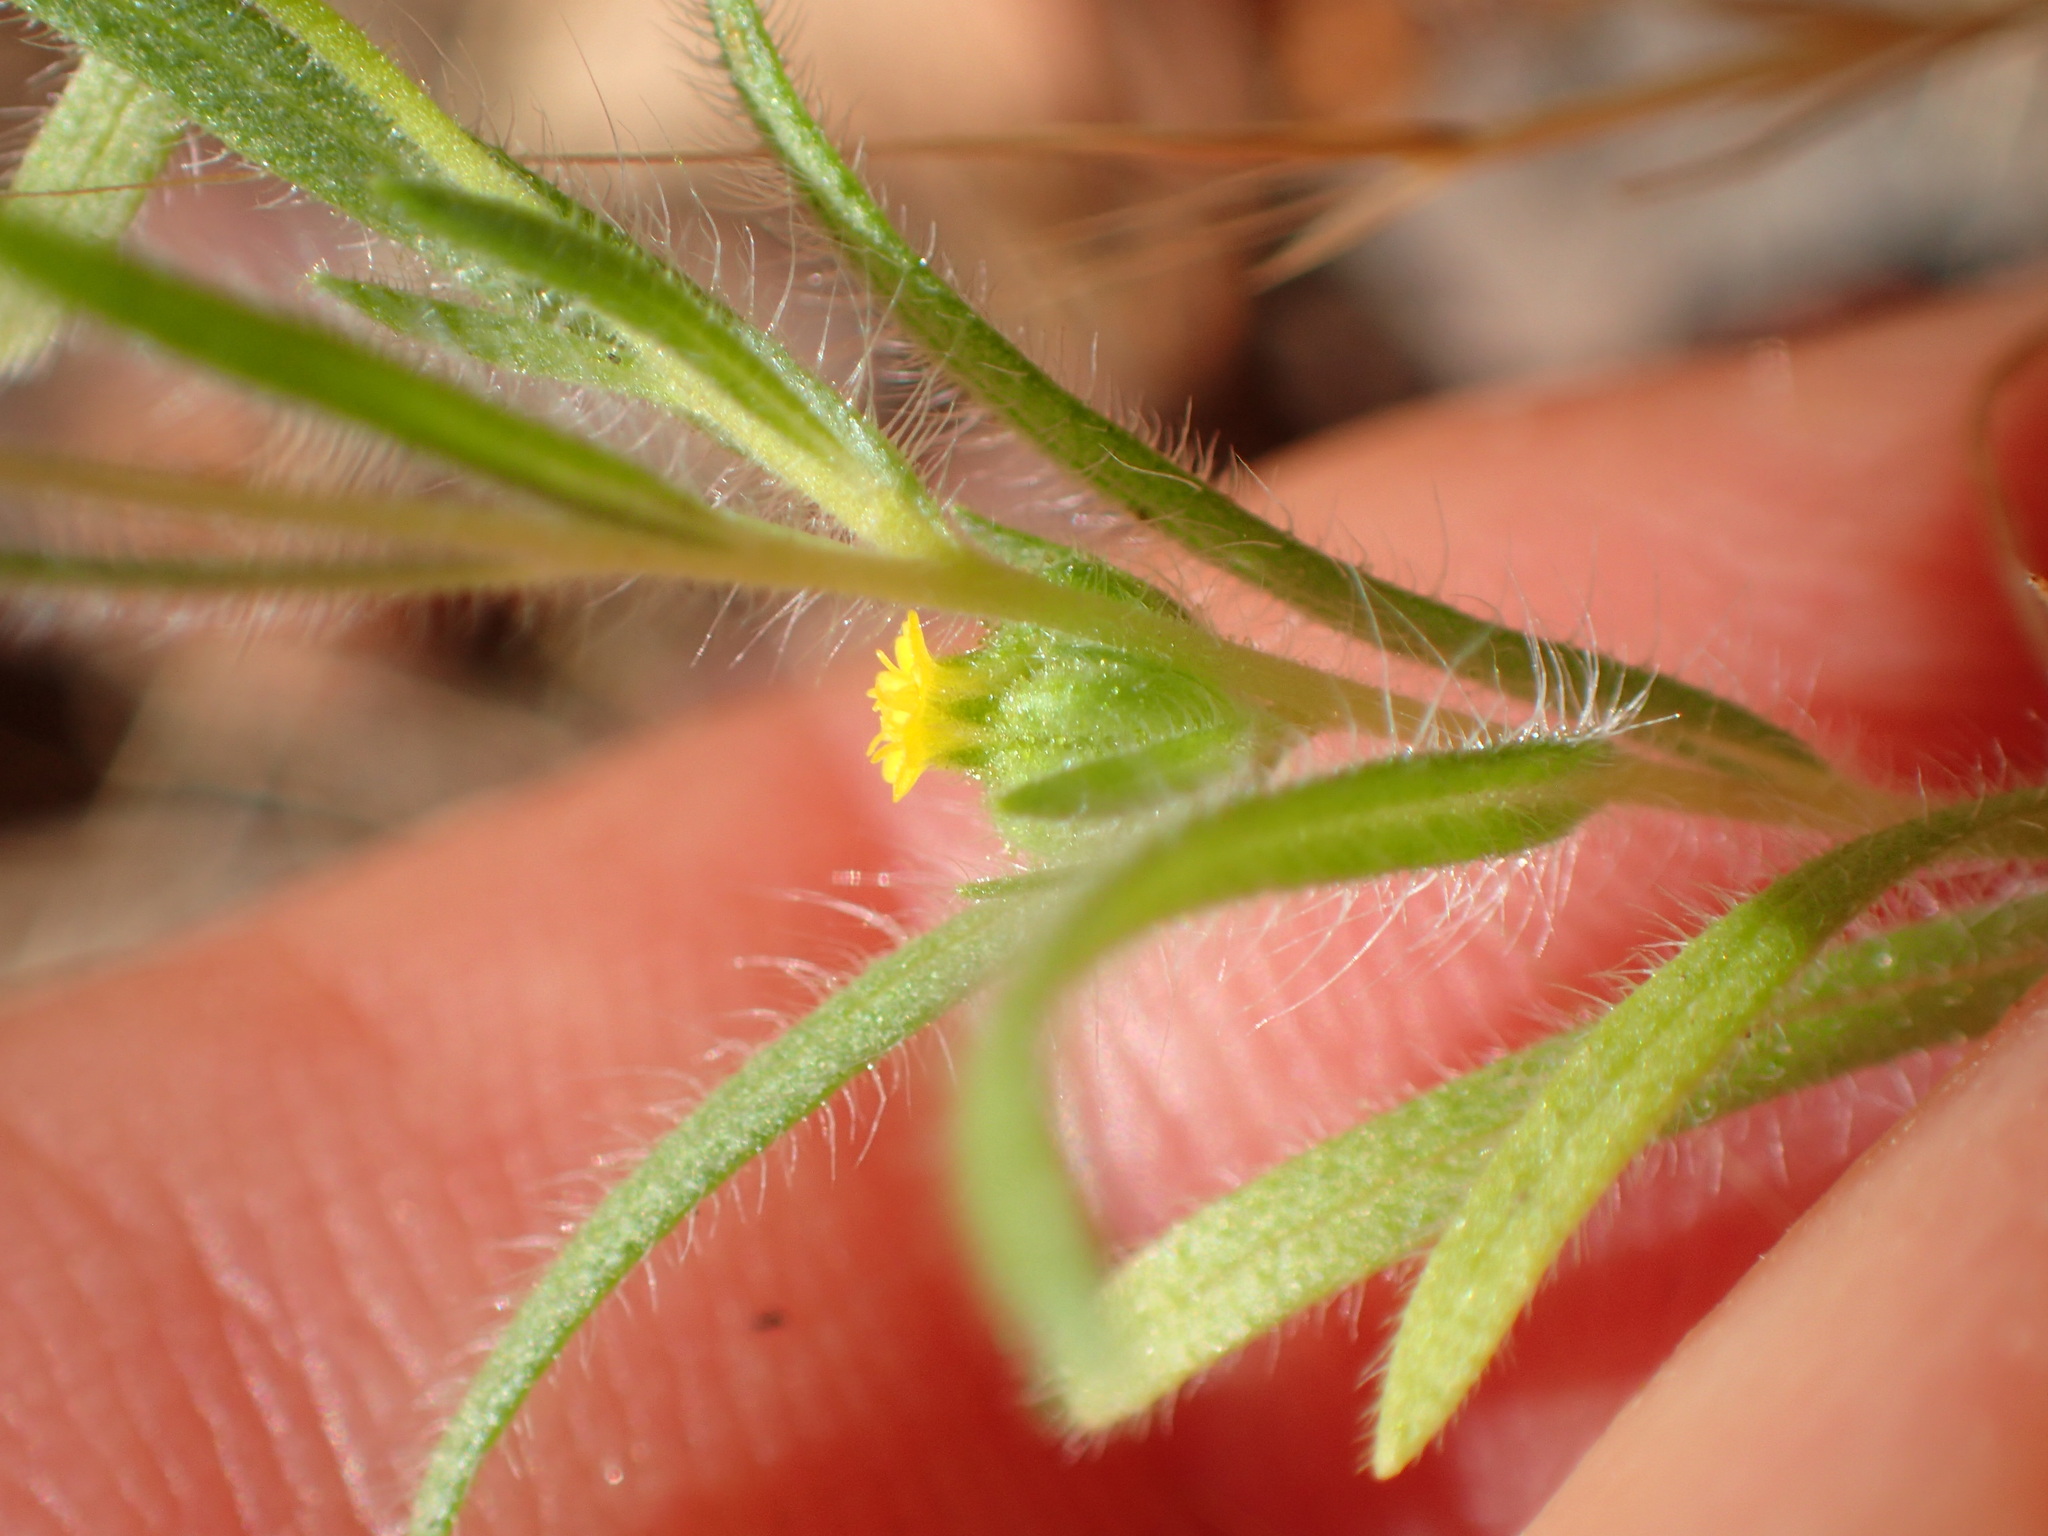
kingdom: Plantae
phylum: Tracheophyta
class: Magnoliopsida
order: Asterales
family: Asteraceae
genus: Madia
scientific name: Madia exigua
